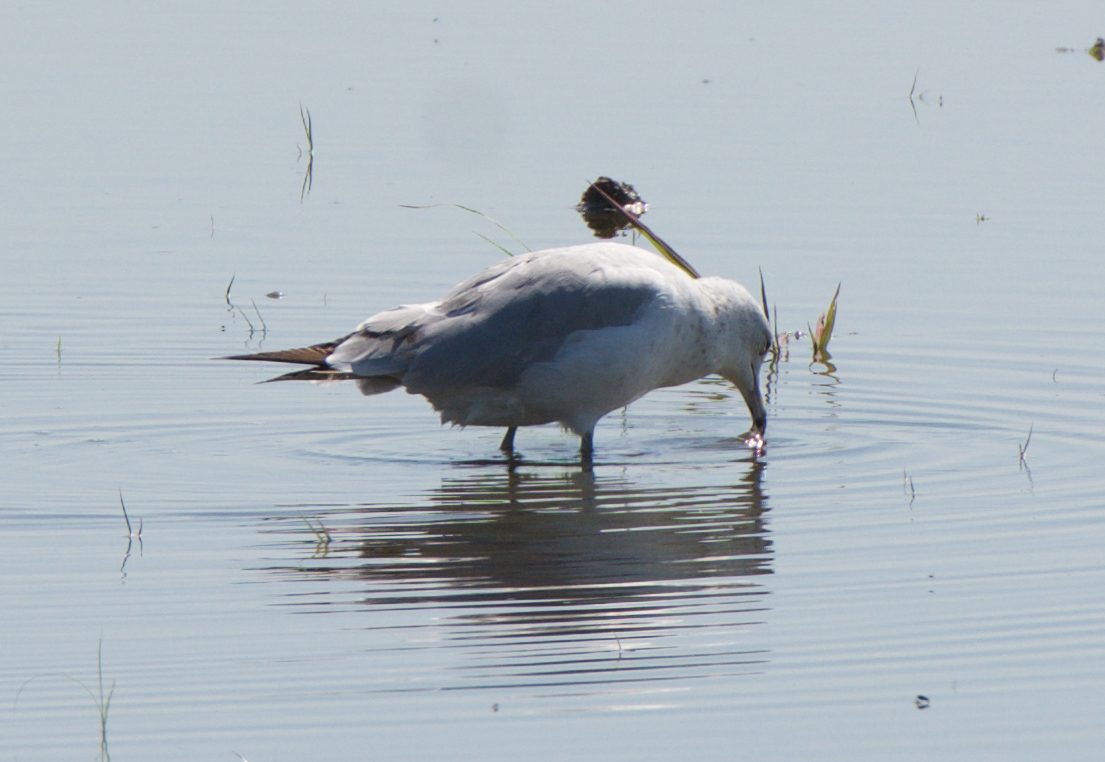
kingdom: Animalia
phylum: Chordata
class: Aves
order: Charadriiformes
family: Laridae
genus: Larus
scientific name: Larus delawarensis
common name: Ring-billed gull
